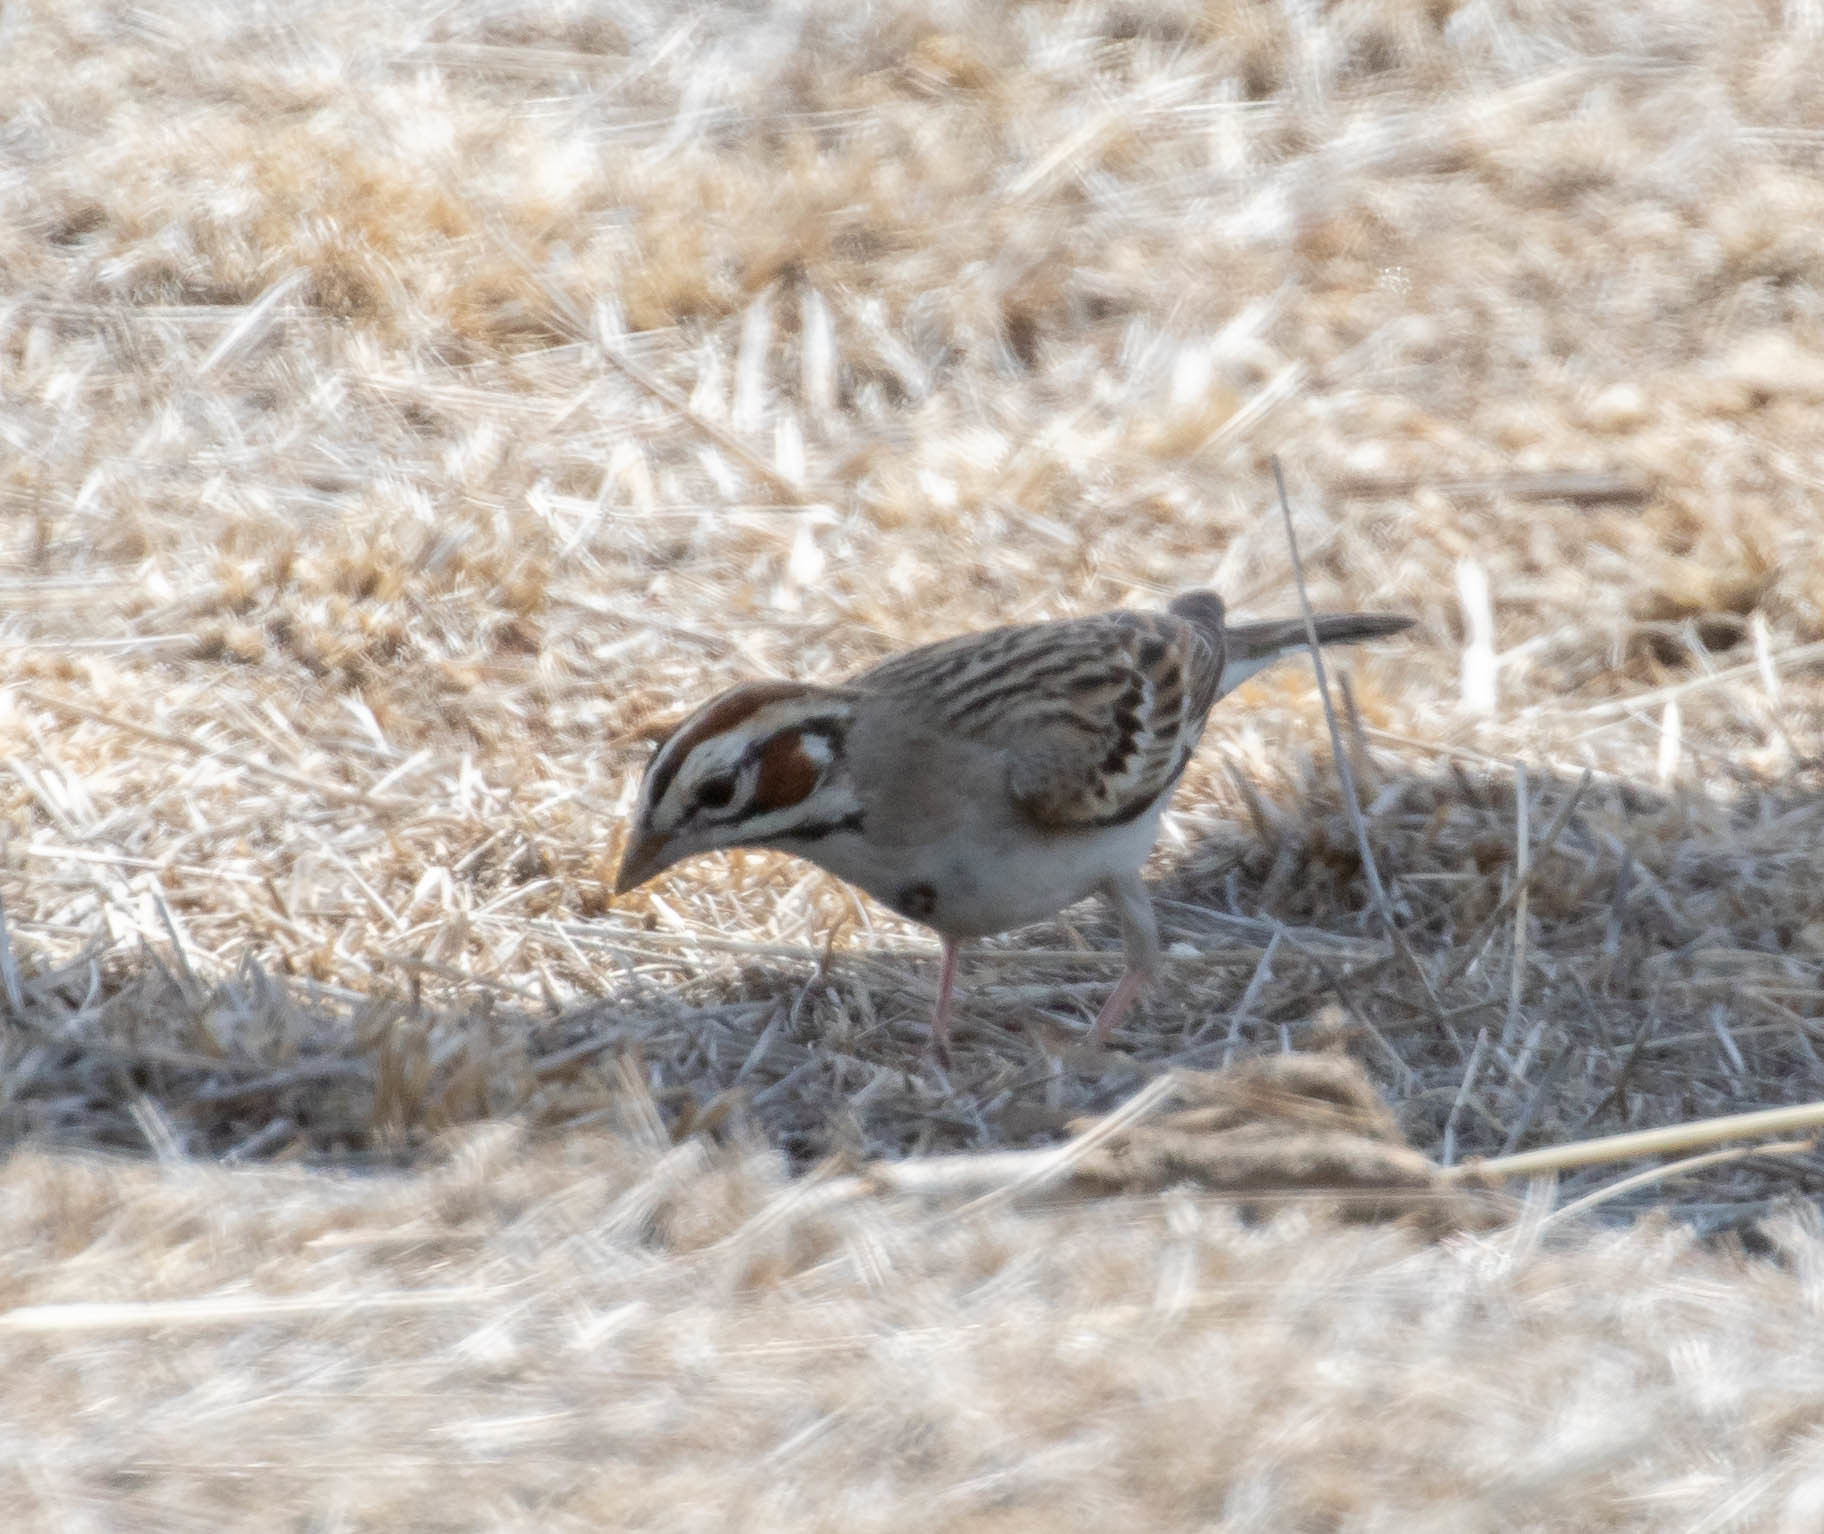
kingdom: Animalia
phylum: Chordata
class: Aves
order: Passeriformes
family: Passerellidae
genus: Chondestes
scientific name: Chondestes grammacus
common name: Lark sparrow
